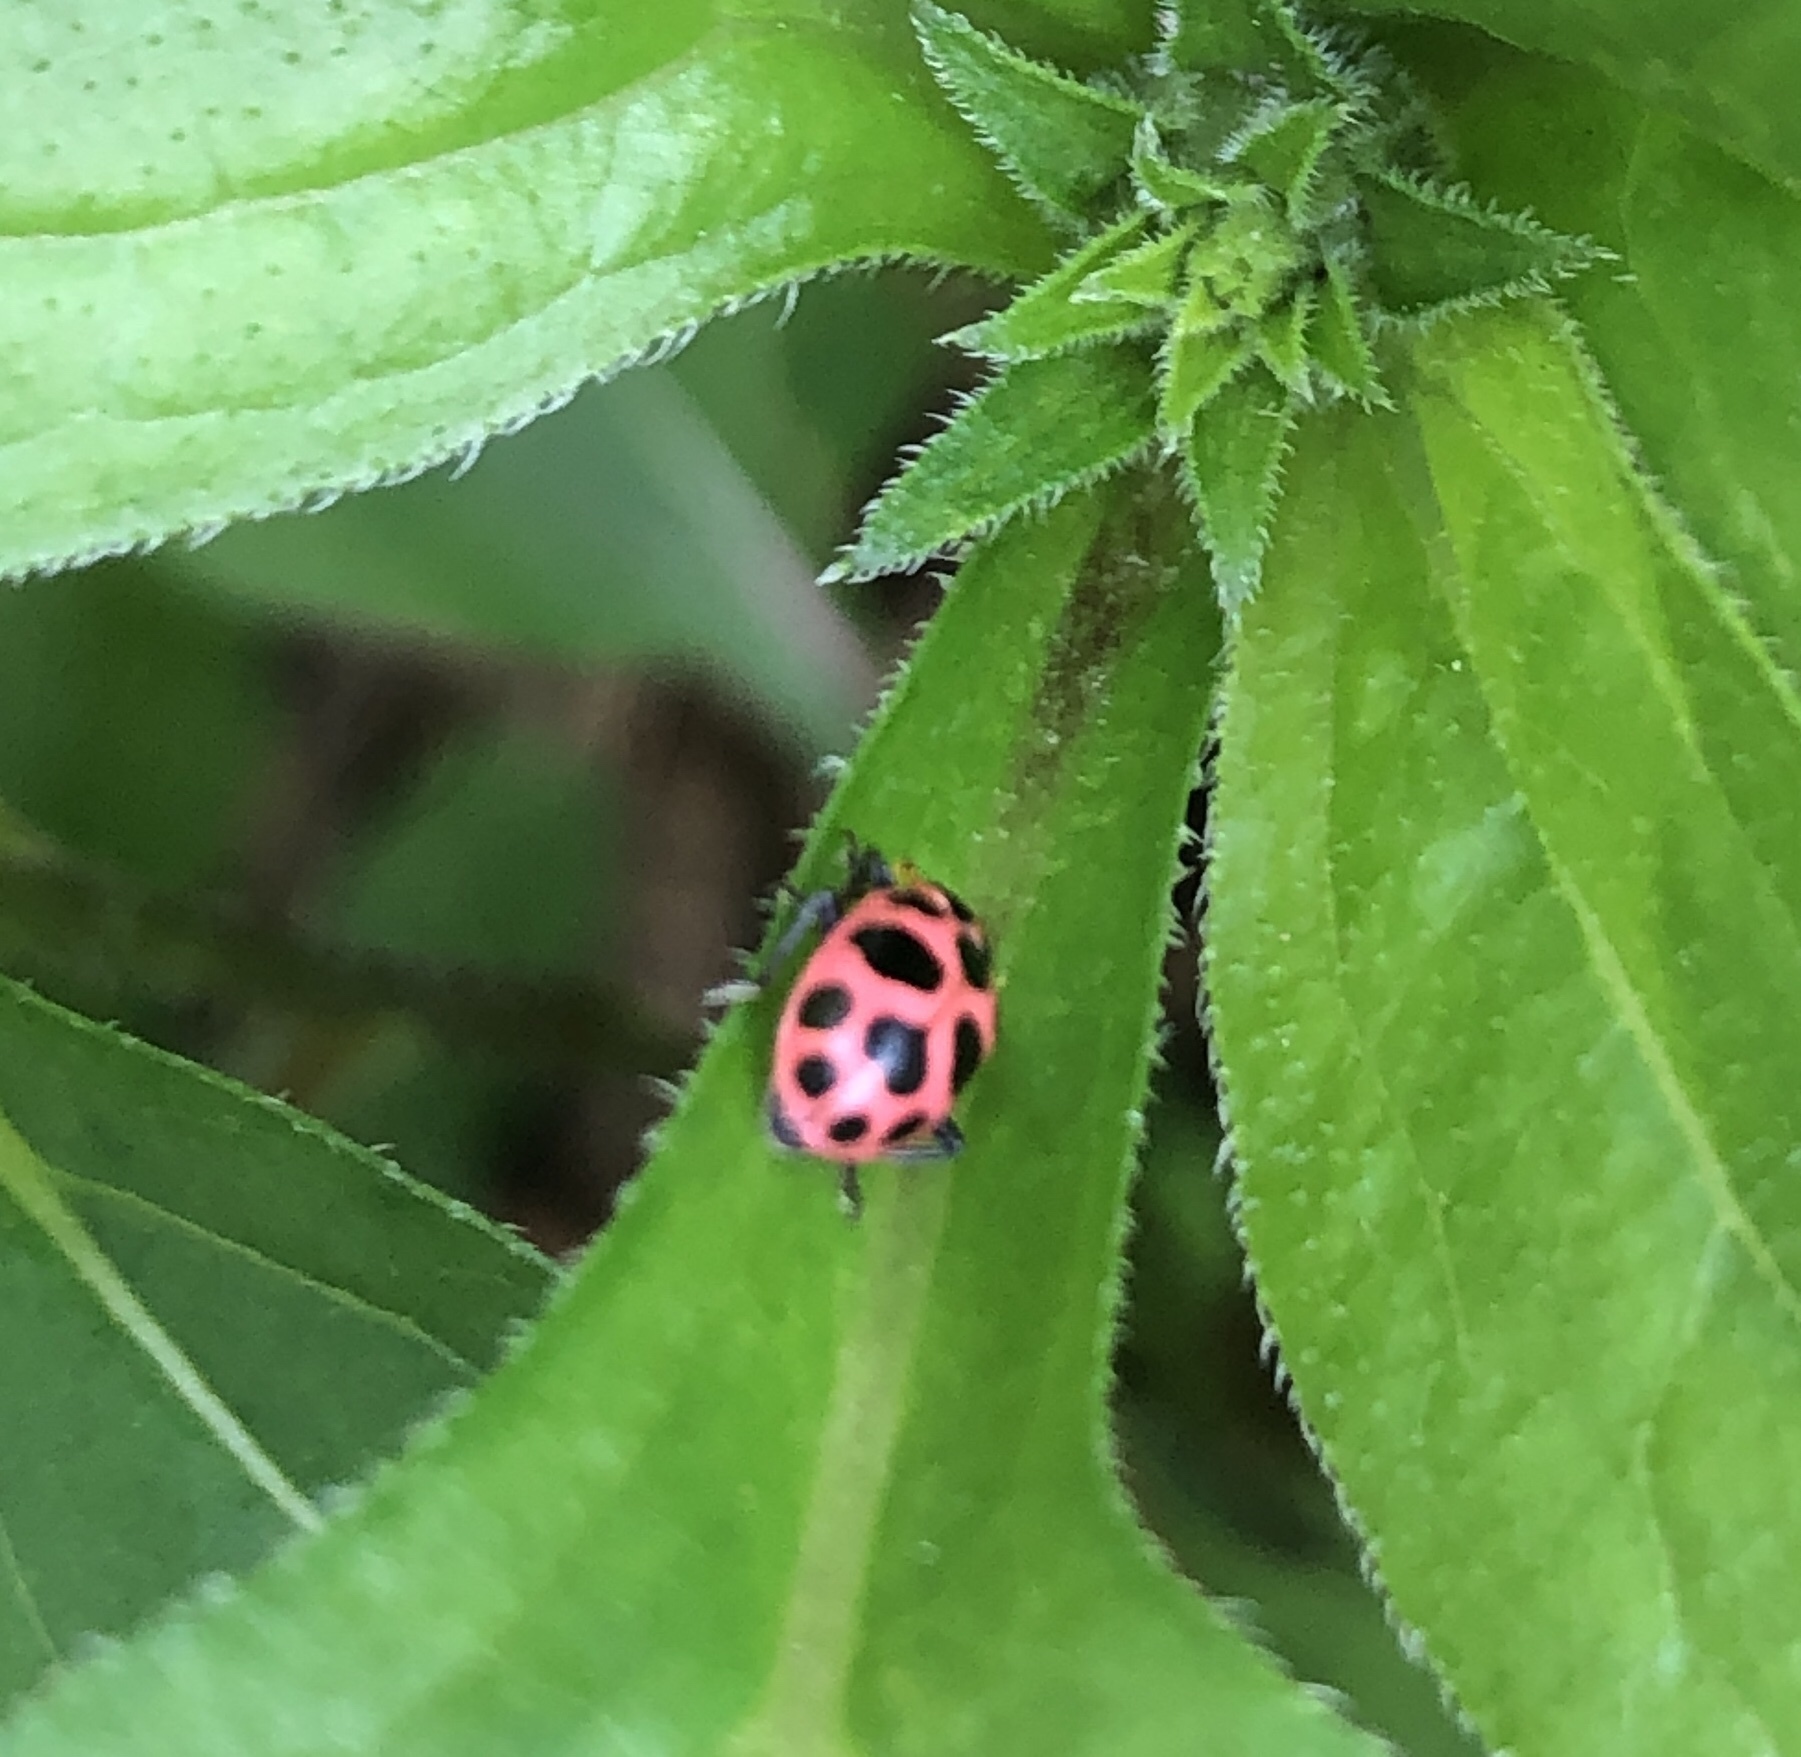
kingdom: Animalia
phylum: Arthropoda
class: Insecta
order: Coleoptera
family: Coccinellidae
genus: Coleomegilla
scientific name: Coleomegilla maculata
